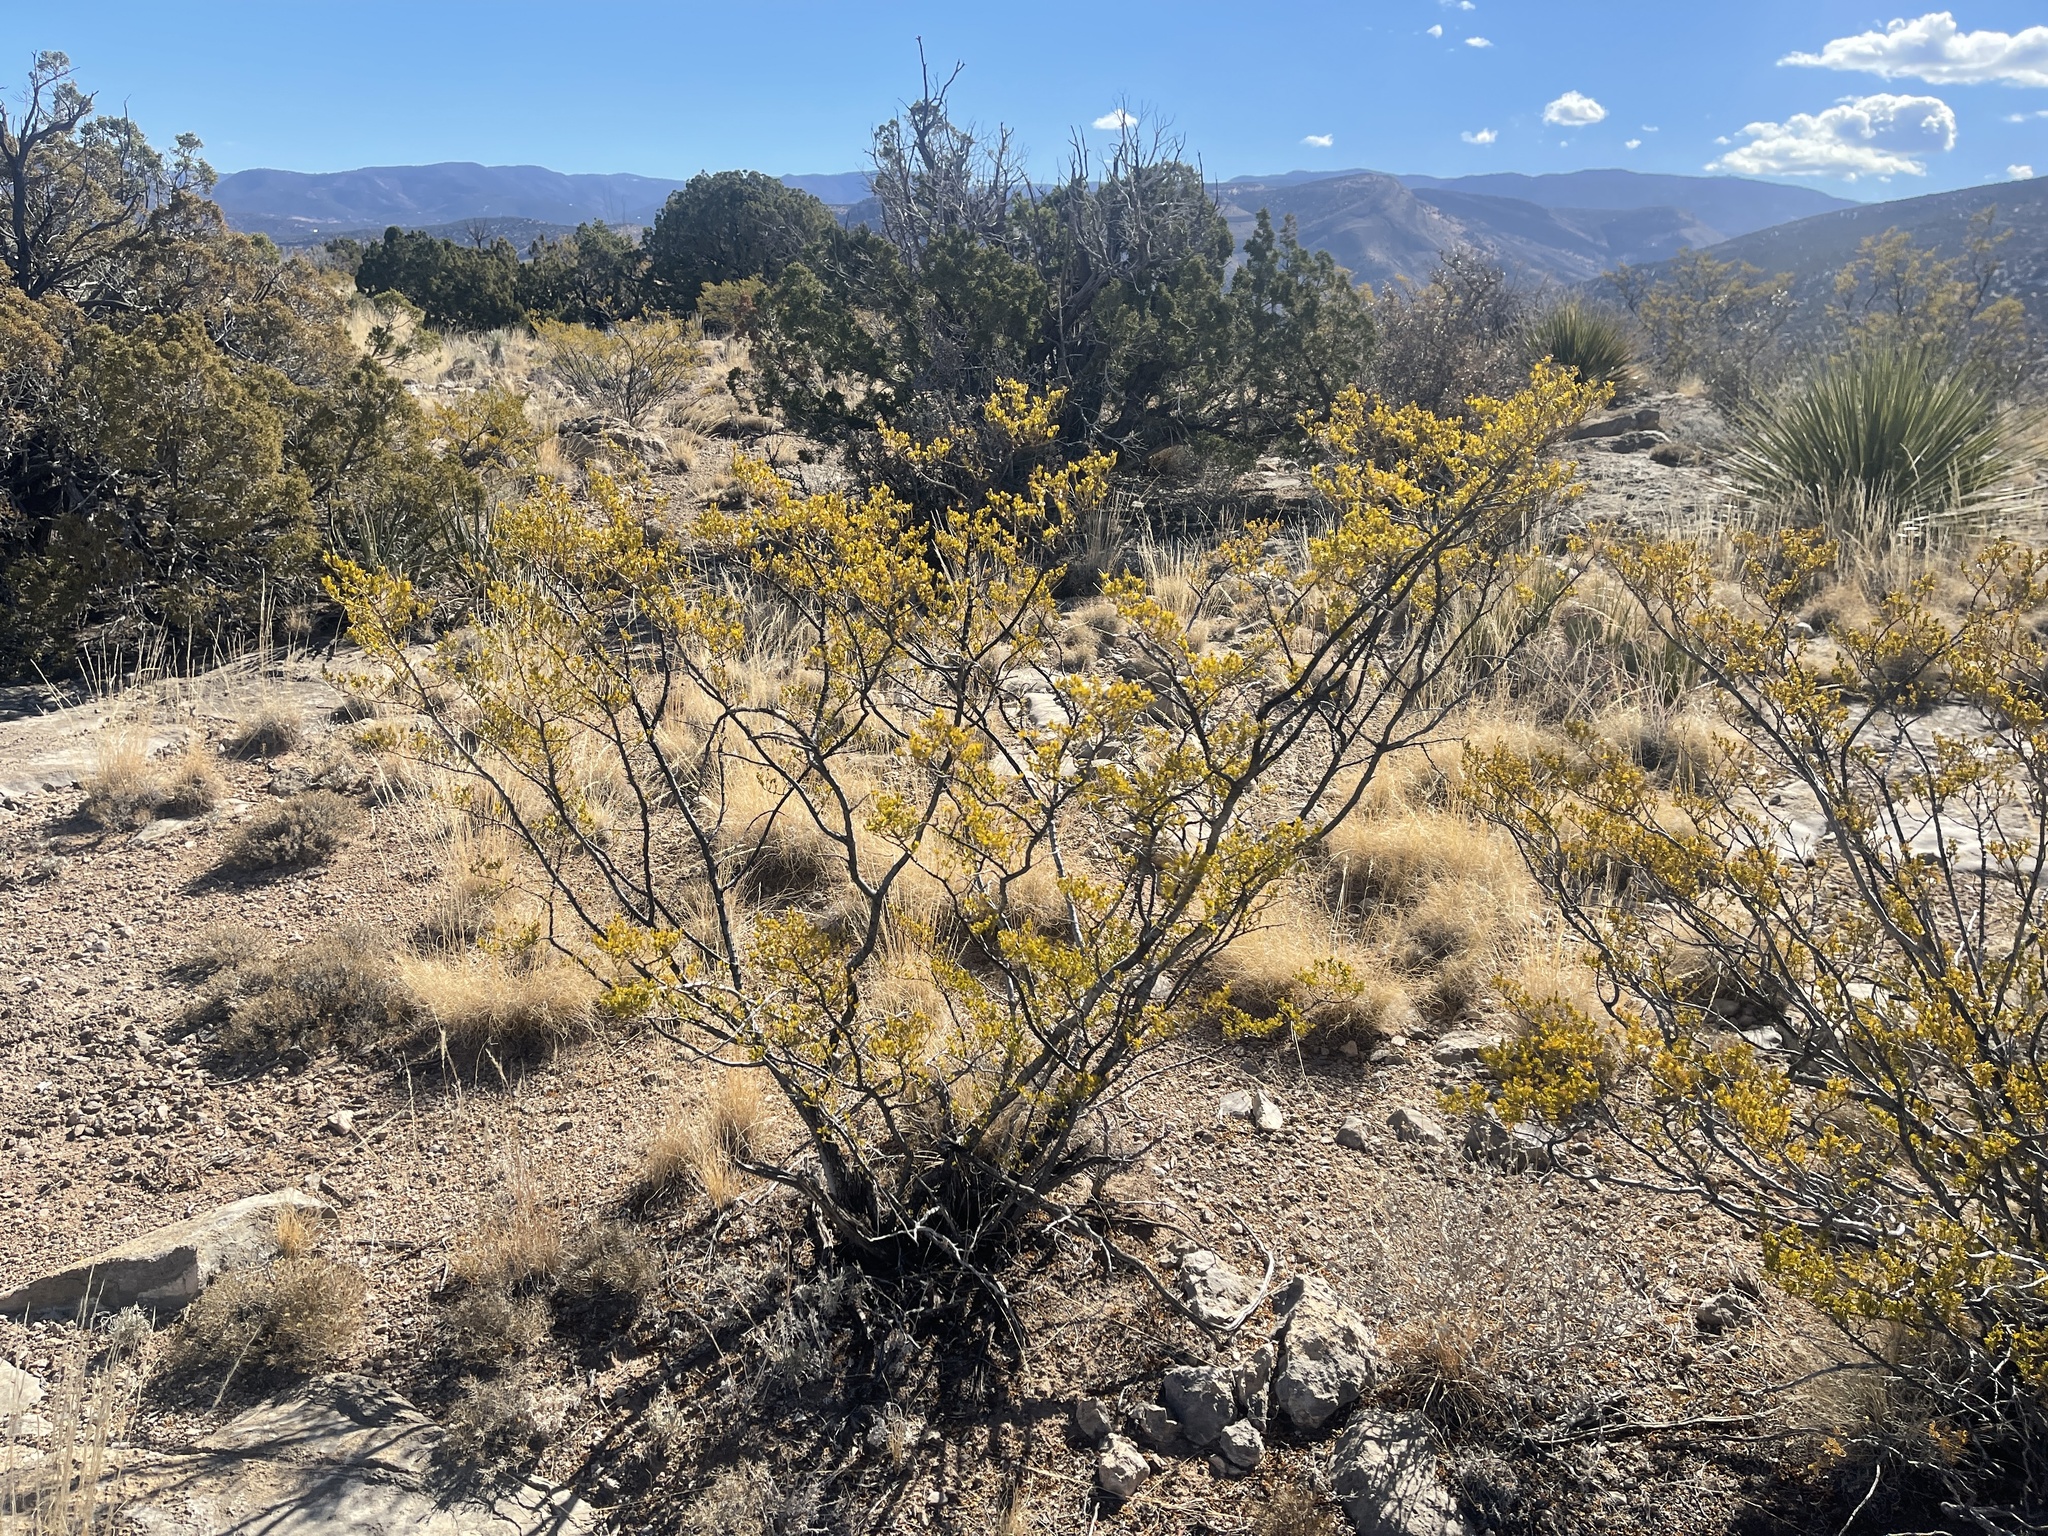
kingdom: Plantae
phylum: Tracheophyta
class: Magnoliopsida
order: Zygophyllales
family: Zygophyllaceae
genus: Larrea
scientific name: Larrea tridentata
